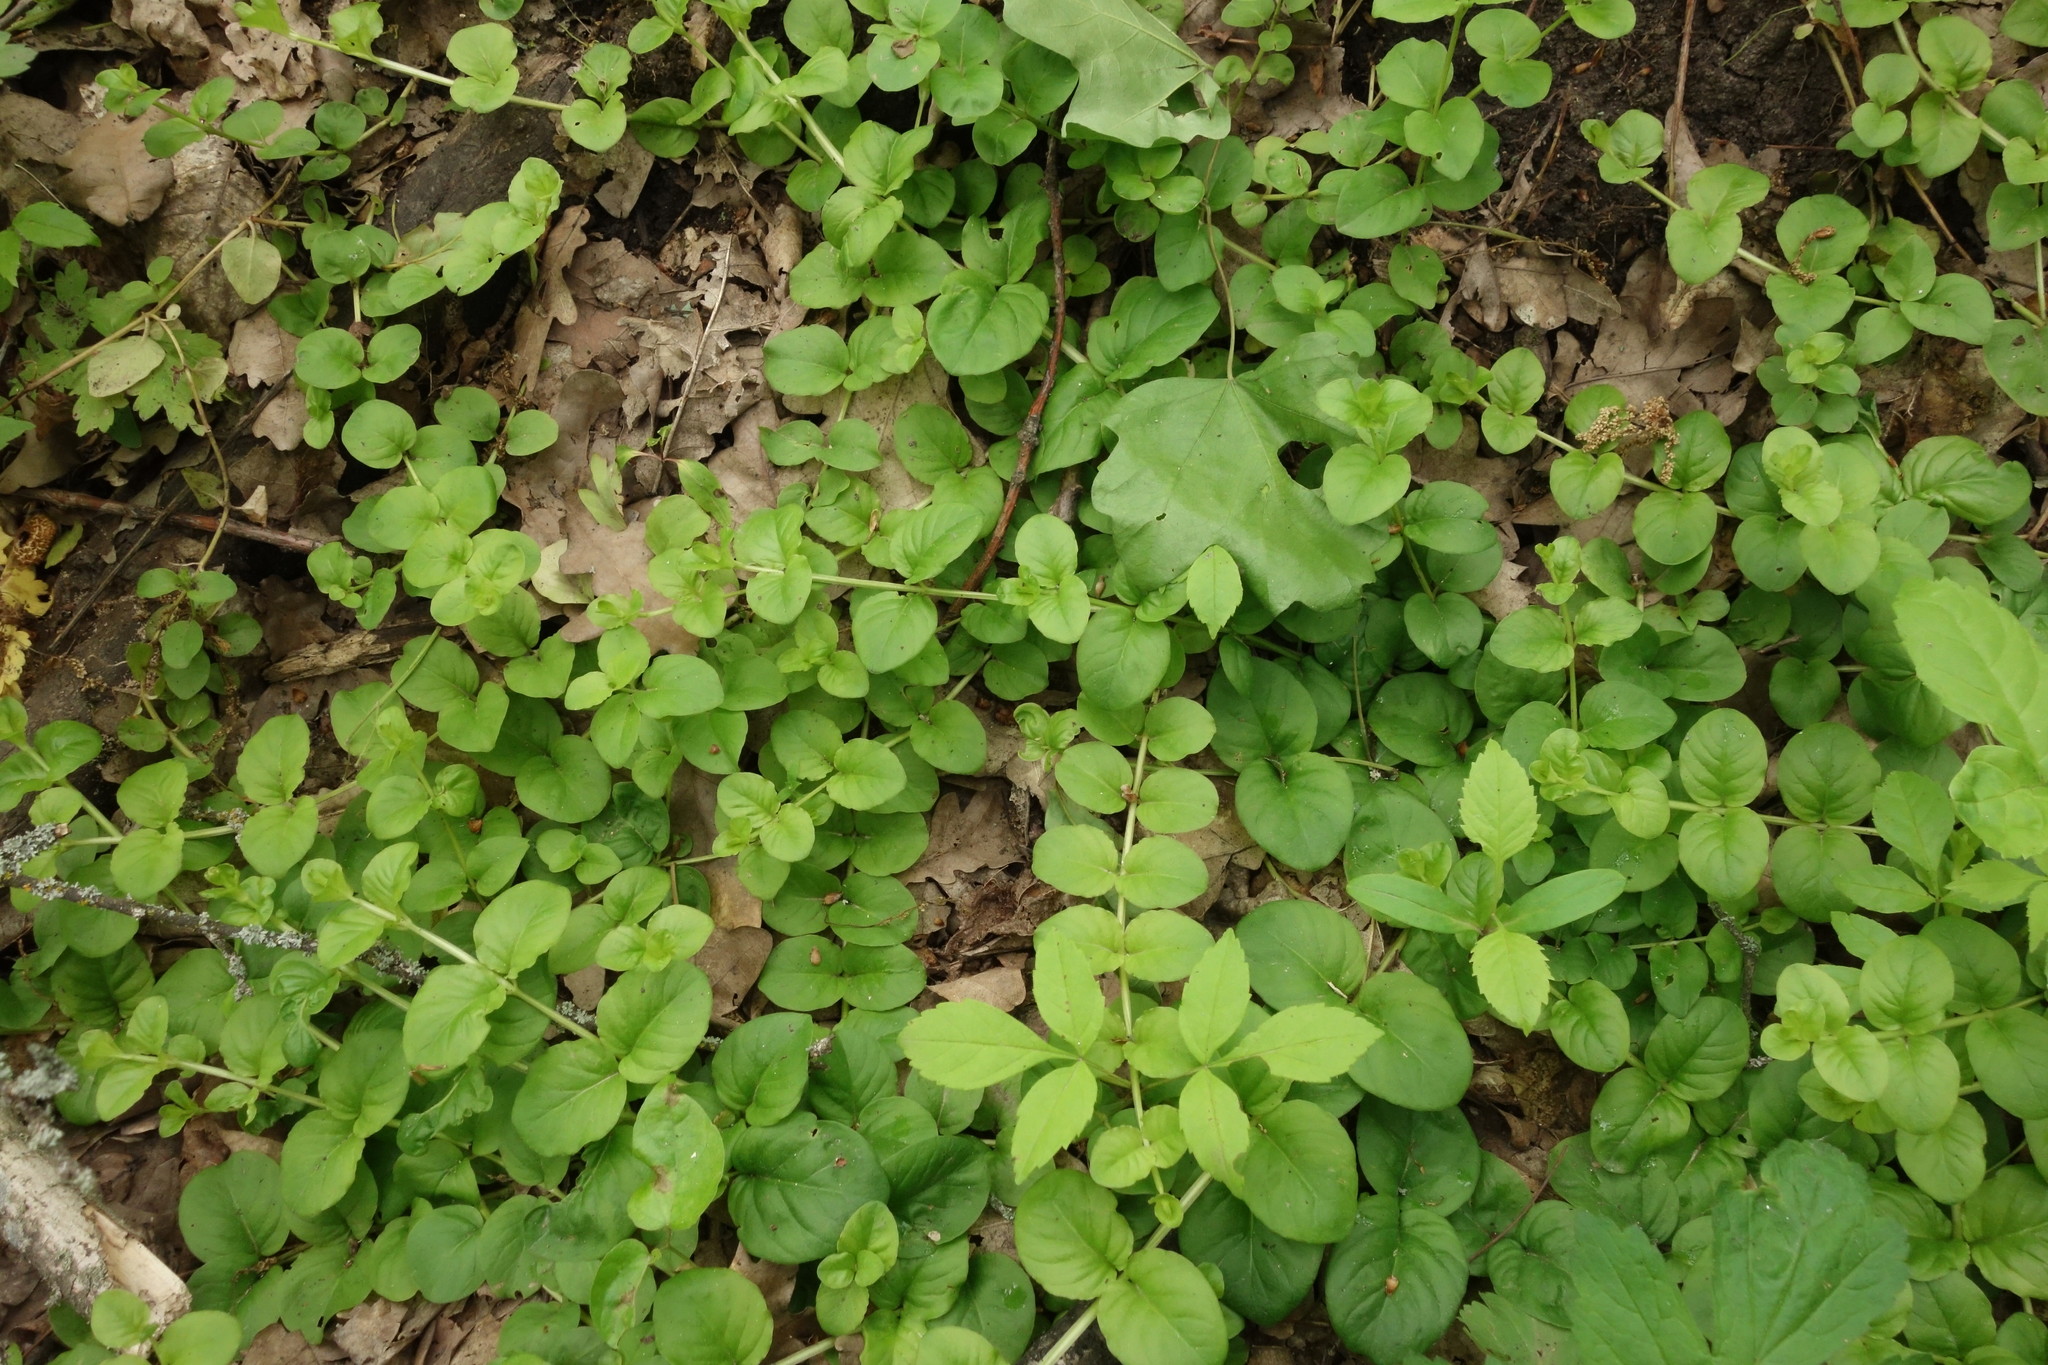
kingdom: Plantae
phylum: Tracheophyta
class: Magnoliopsida
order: Ericales
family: Primulaceae
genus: Lysimachia
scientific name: Lysimachia nummularia
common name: Moneywort
